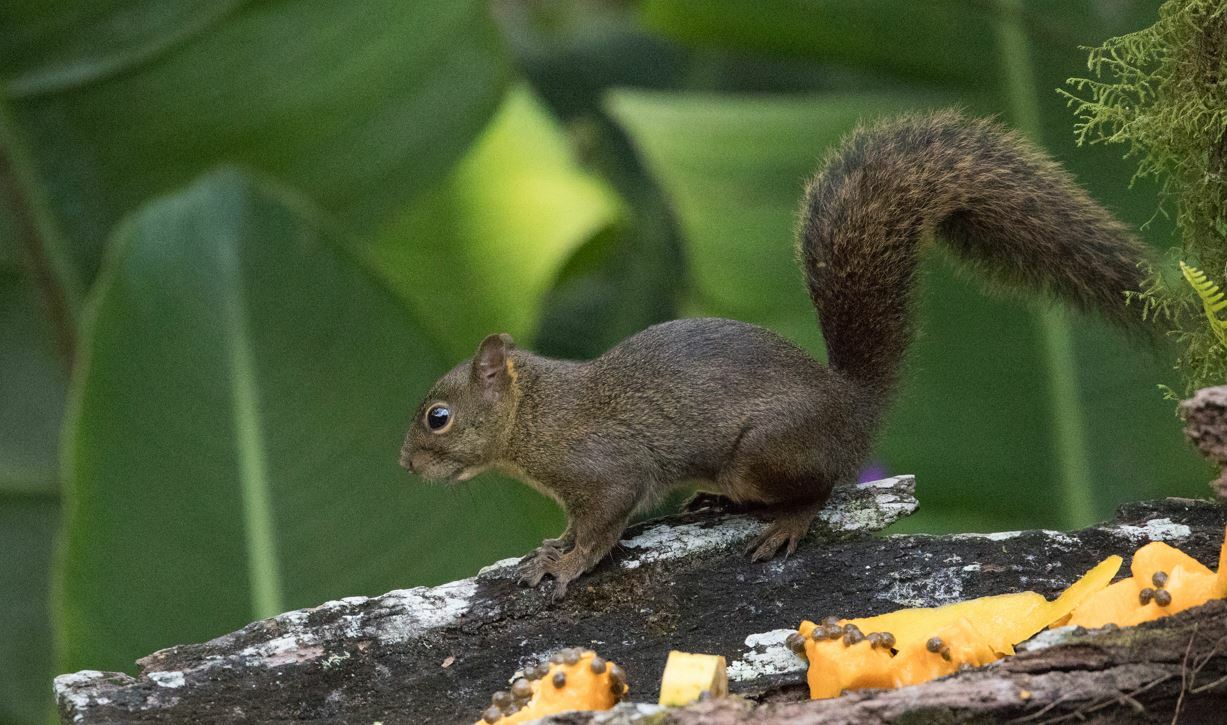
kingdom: Animalia
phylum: Chordata
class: Mammalia
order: Rodentia
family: Sciuridae
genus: Sciurus
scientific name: Sciurus ignitus
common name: Bolivian squirrel
